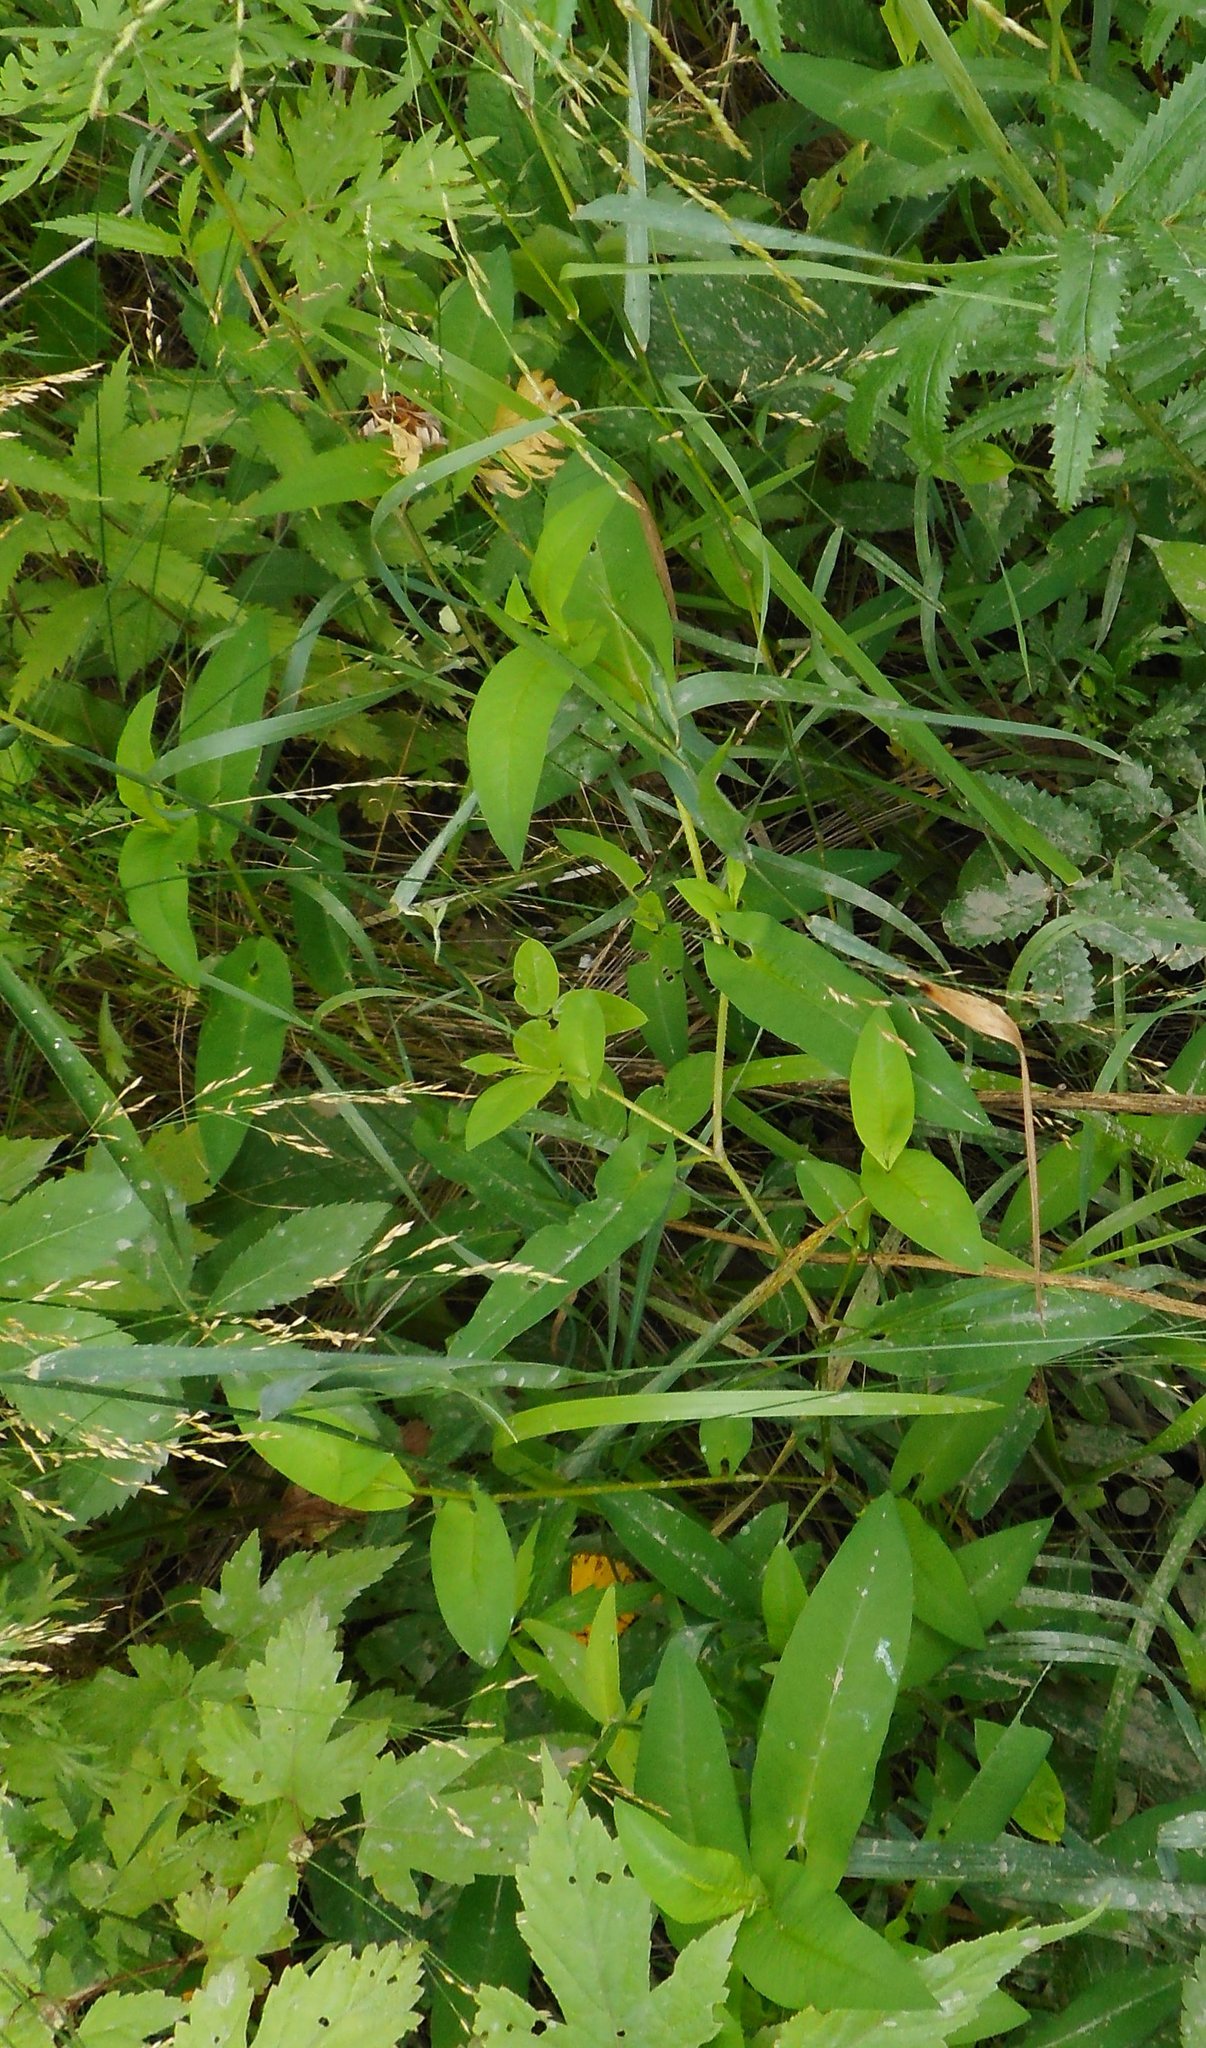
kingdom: Plantae
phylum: Tracheophyta
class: Magnoliopsida
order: Caryophyllales
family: Polygonaceae
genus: Persicaria
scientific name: Persicaria sagittata
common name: American tearthumb
